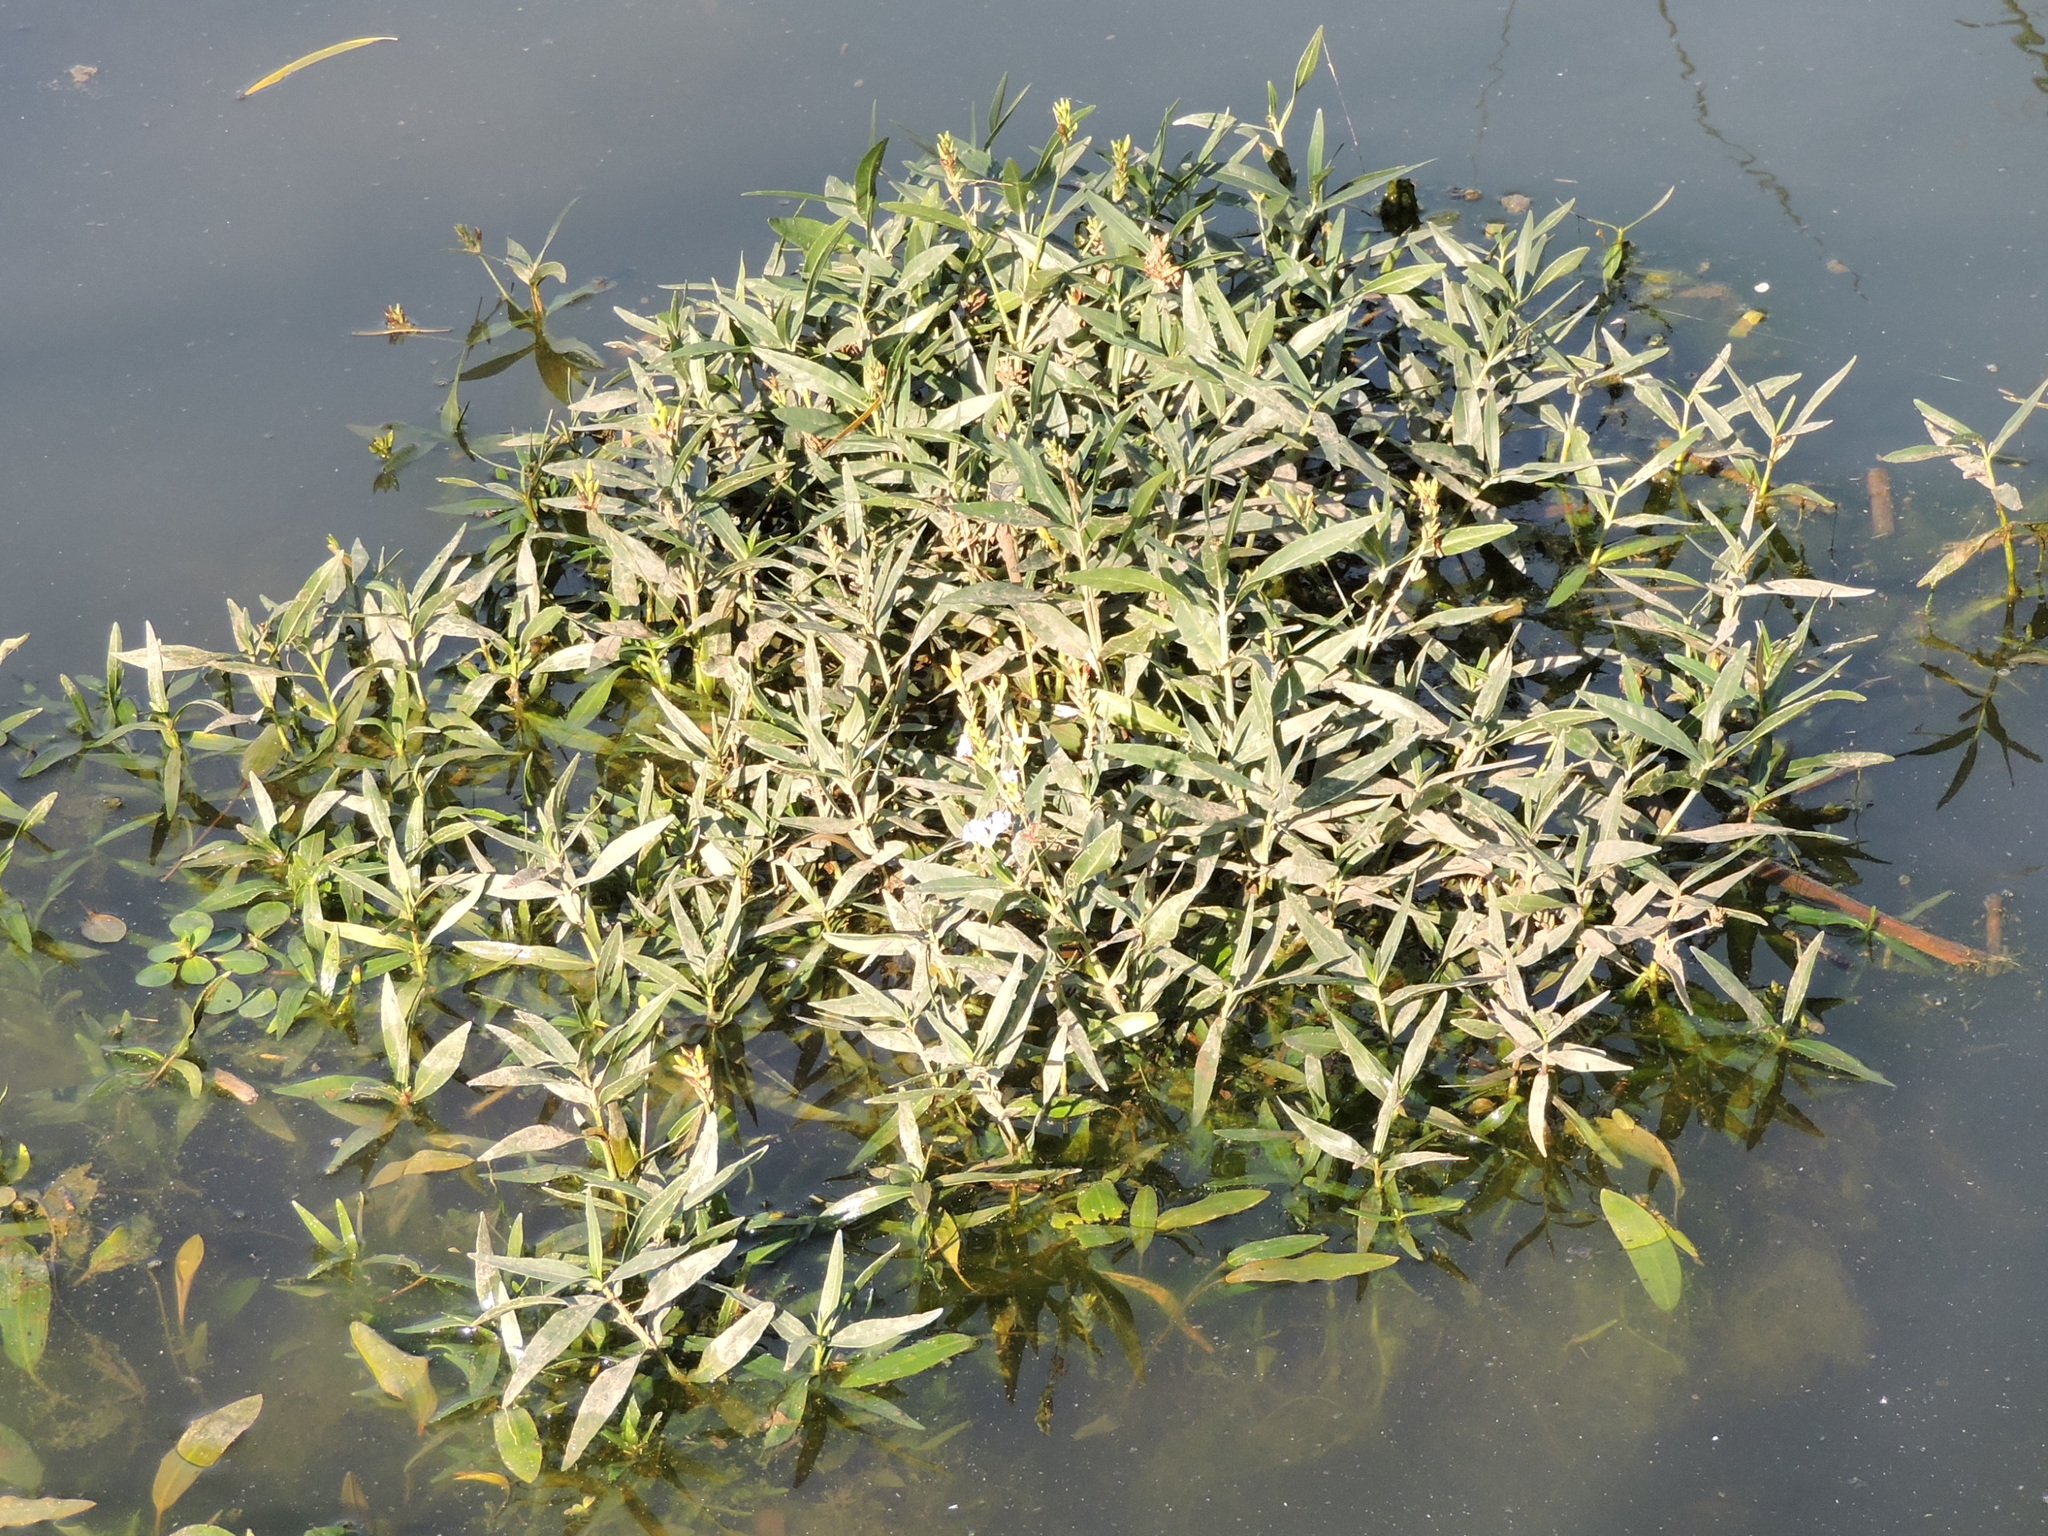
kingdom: Plantae
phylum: Tracheophyta
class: Magnoliopsida
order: Lamiales
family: Acanthaceae
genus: Dianthera
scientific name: Dianthera americana
